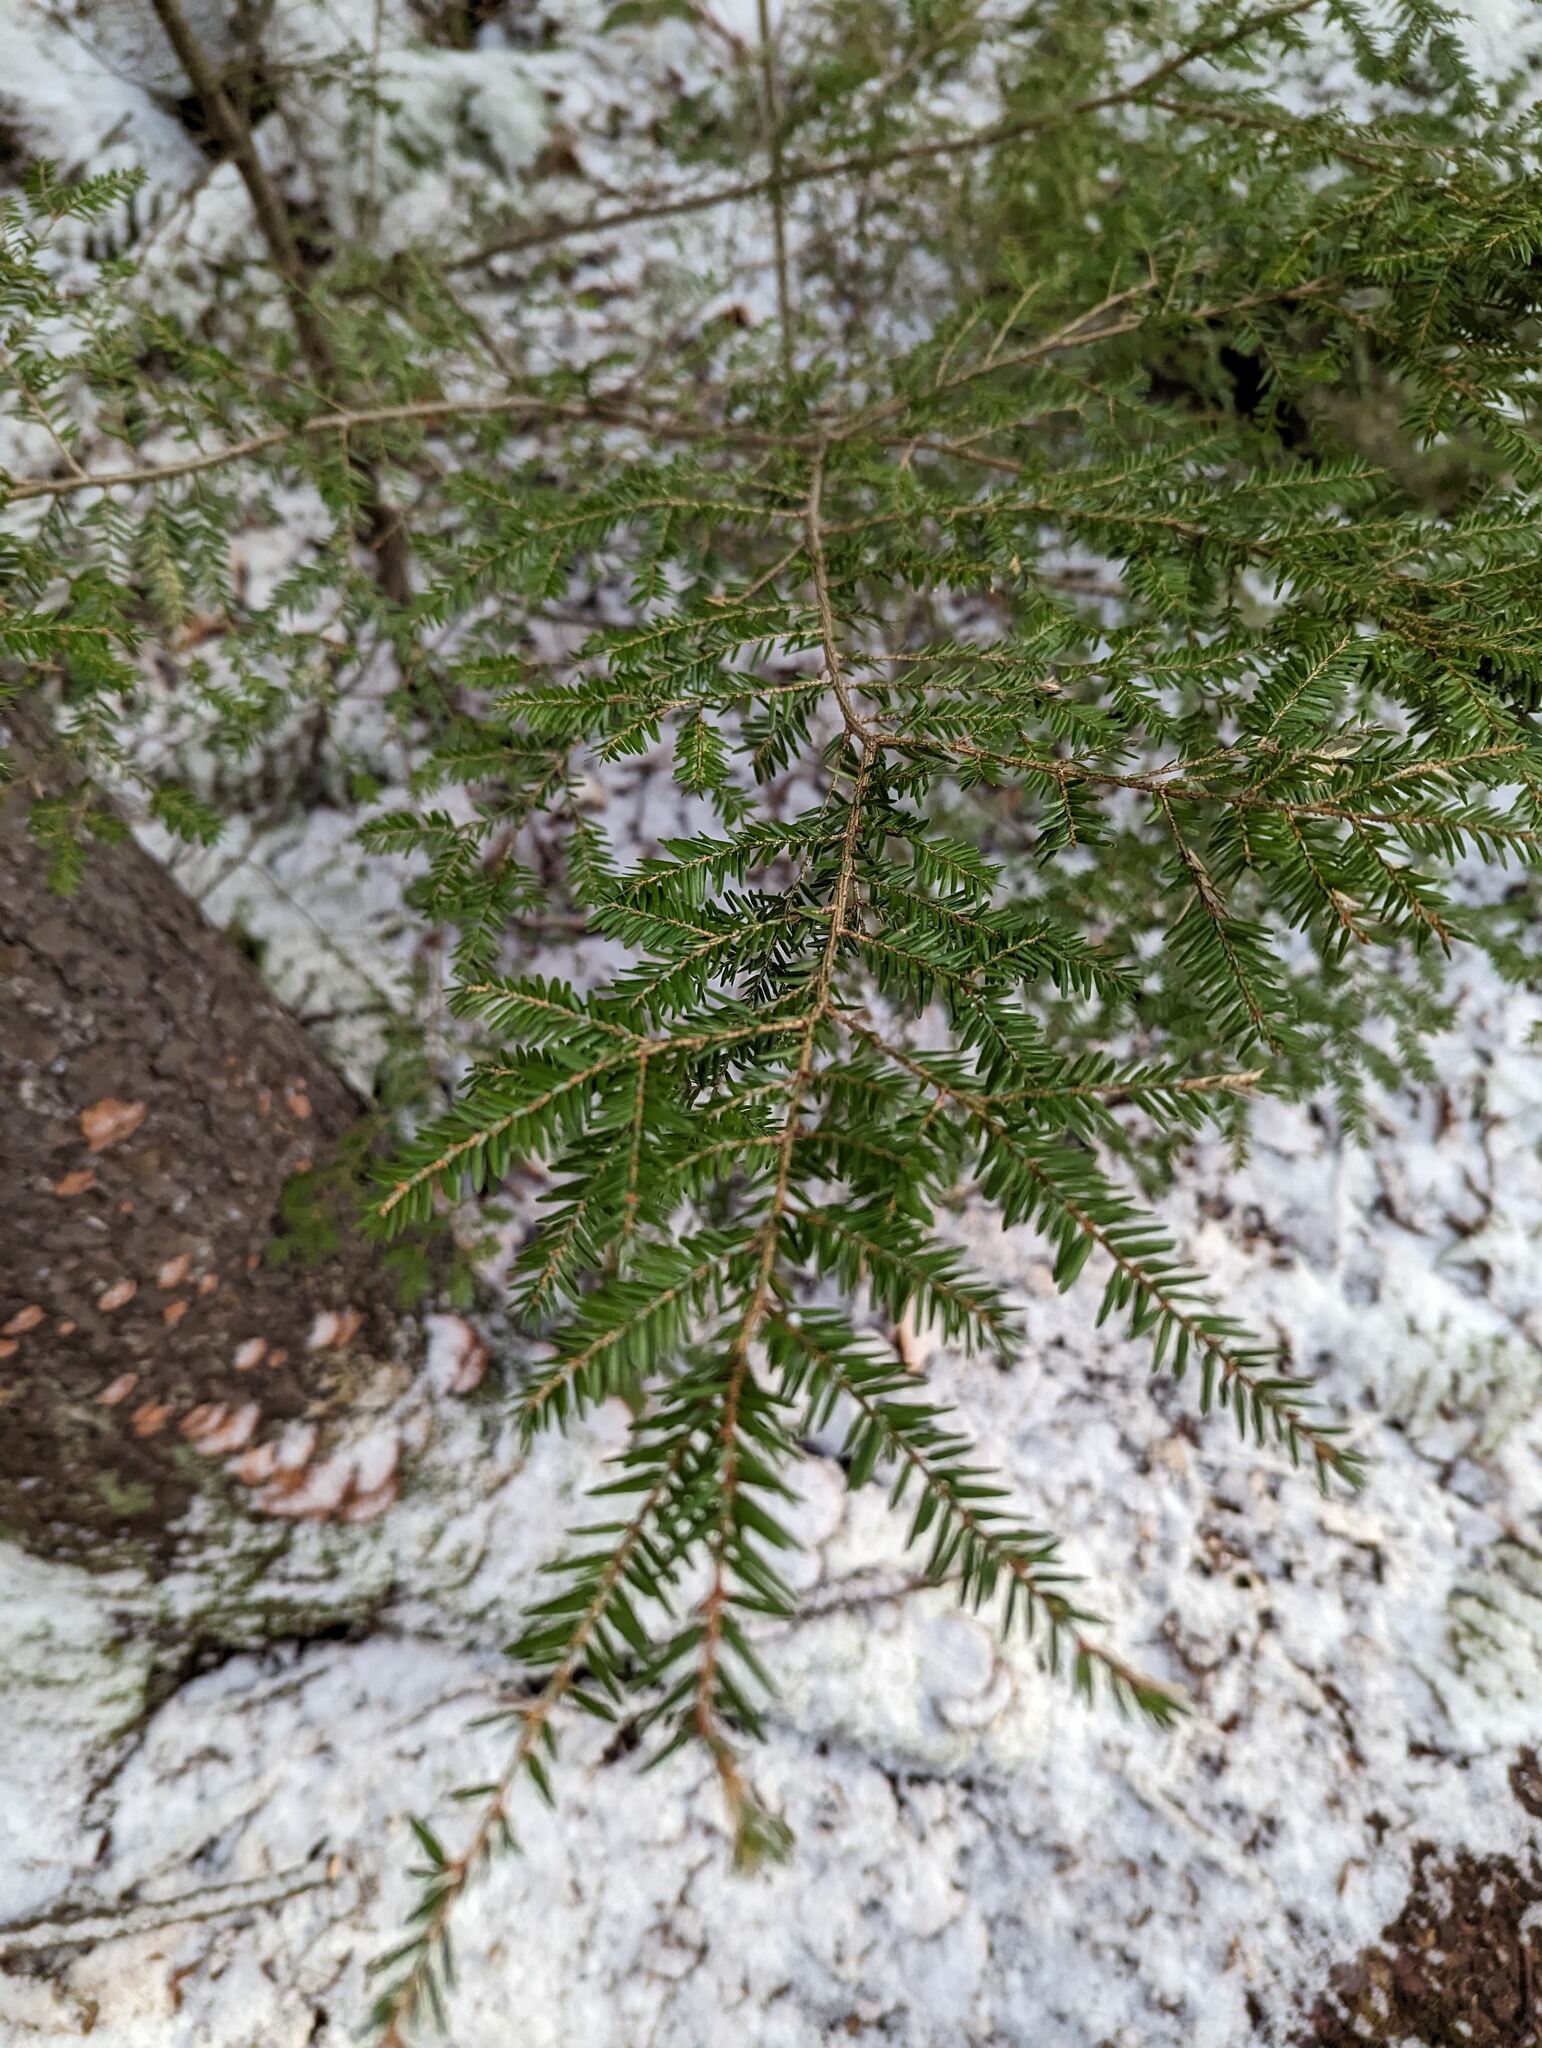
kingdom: Plantae
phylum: Tracheophyta
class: Pinopsida
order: Pinales
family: Pinaceae
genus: Tsuga
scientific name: Tsuga canadensis
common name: Eastern hemlock
